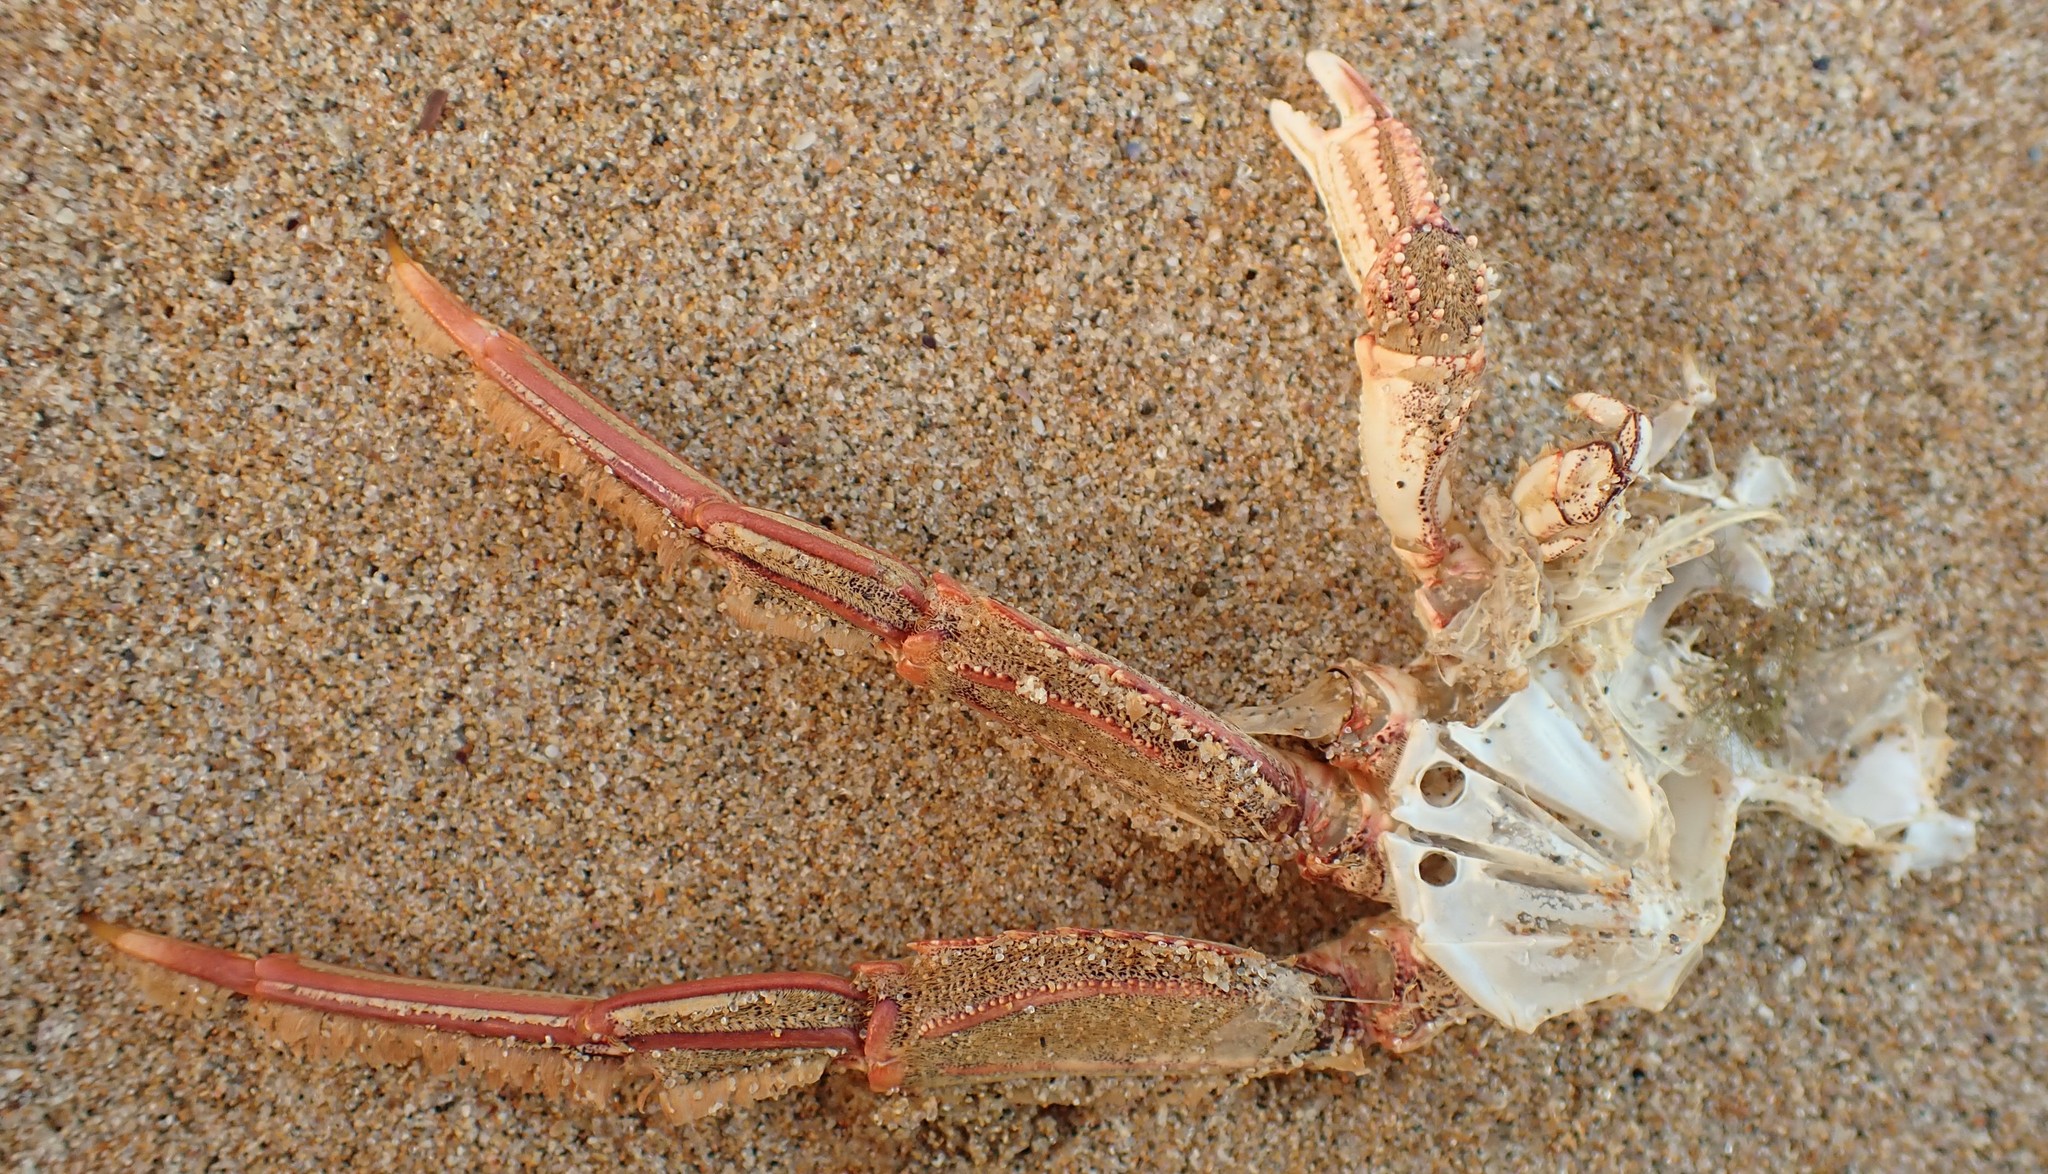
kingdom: Animalia
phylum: Arthropoda
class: Malacostraca
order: Decapoda
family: Plagusiidae
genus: Guinusia
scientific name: Guinusia chabrus
